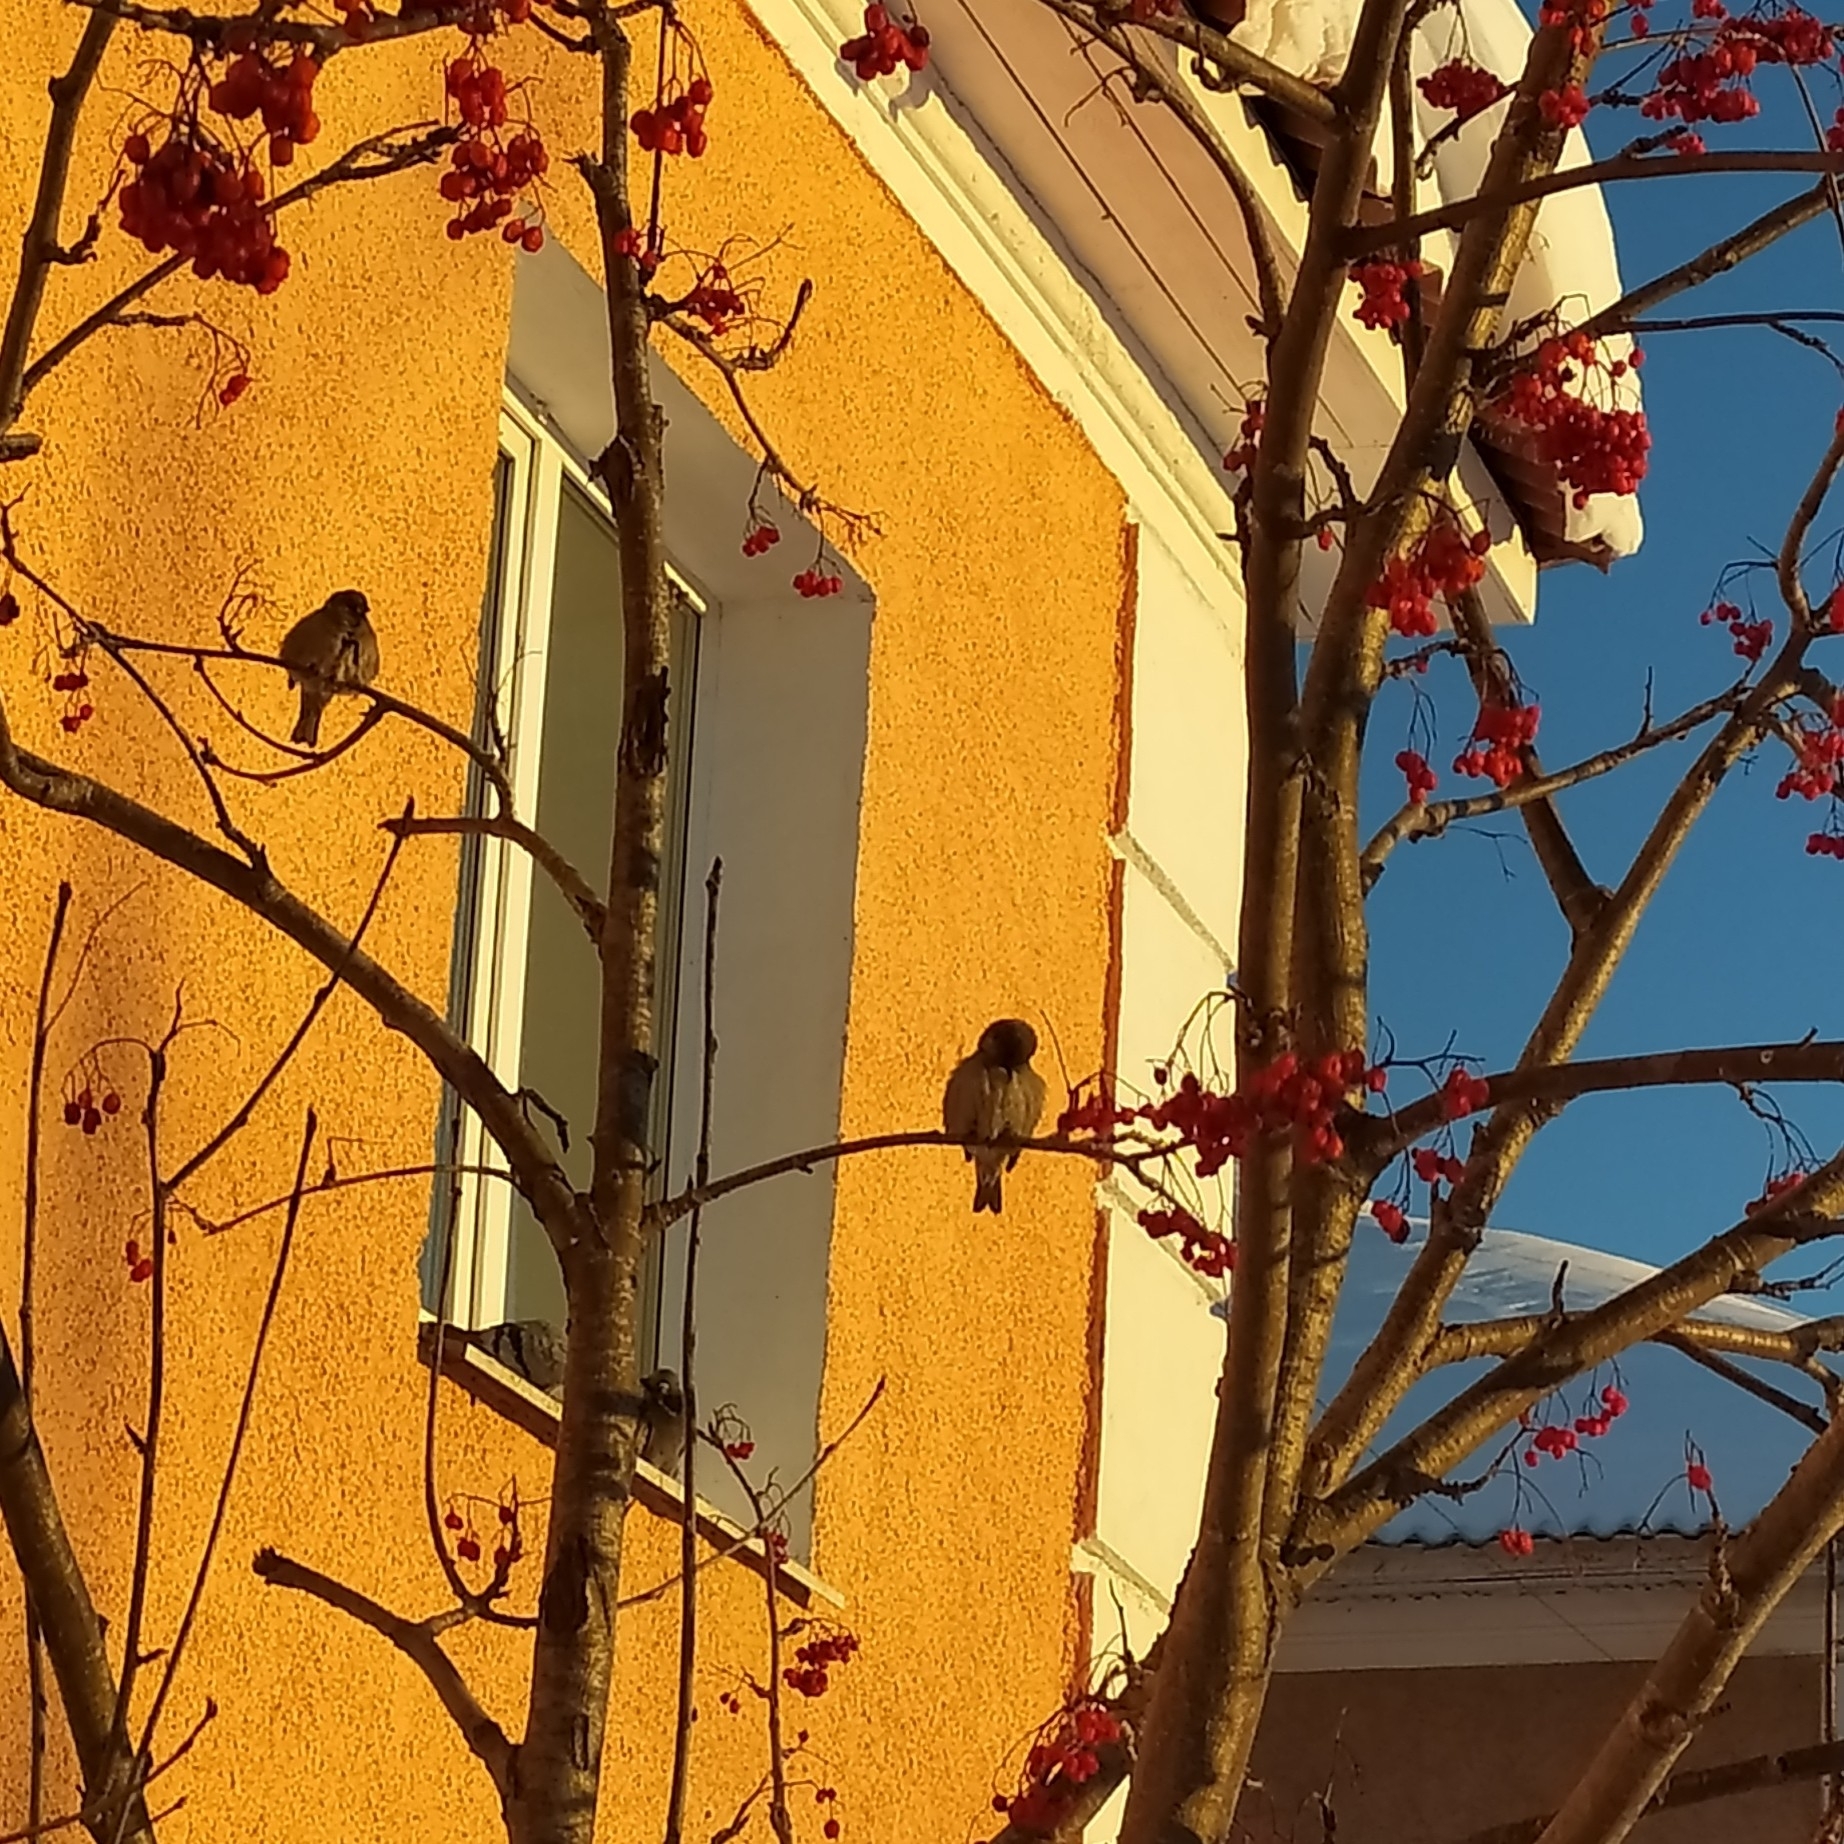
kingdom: Animalia
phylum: Chordata
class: Aves
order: Passeriformes
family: Passeridae
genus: Passer
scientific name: Passer domesticus
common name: House sparrow
